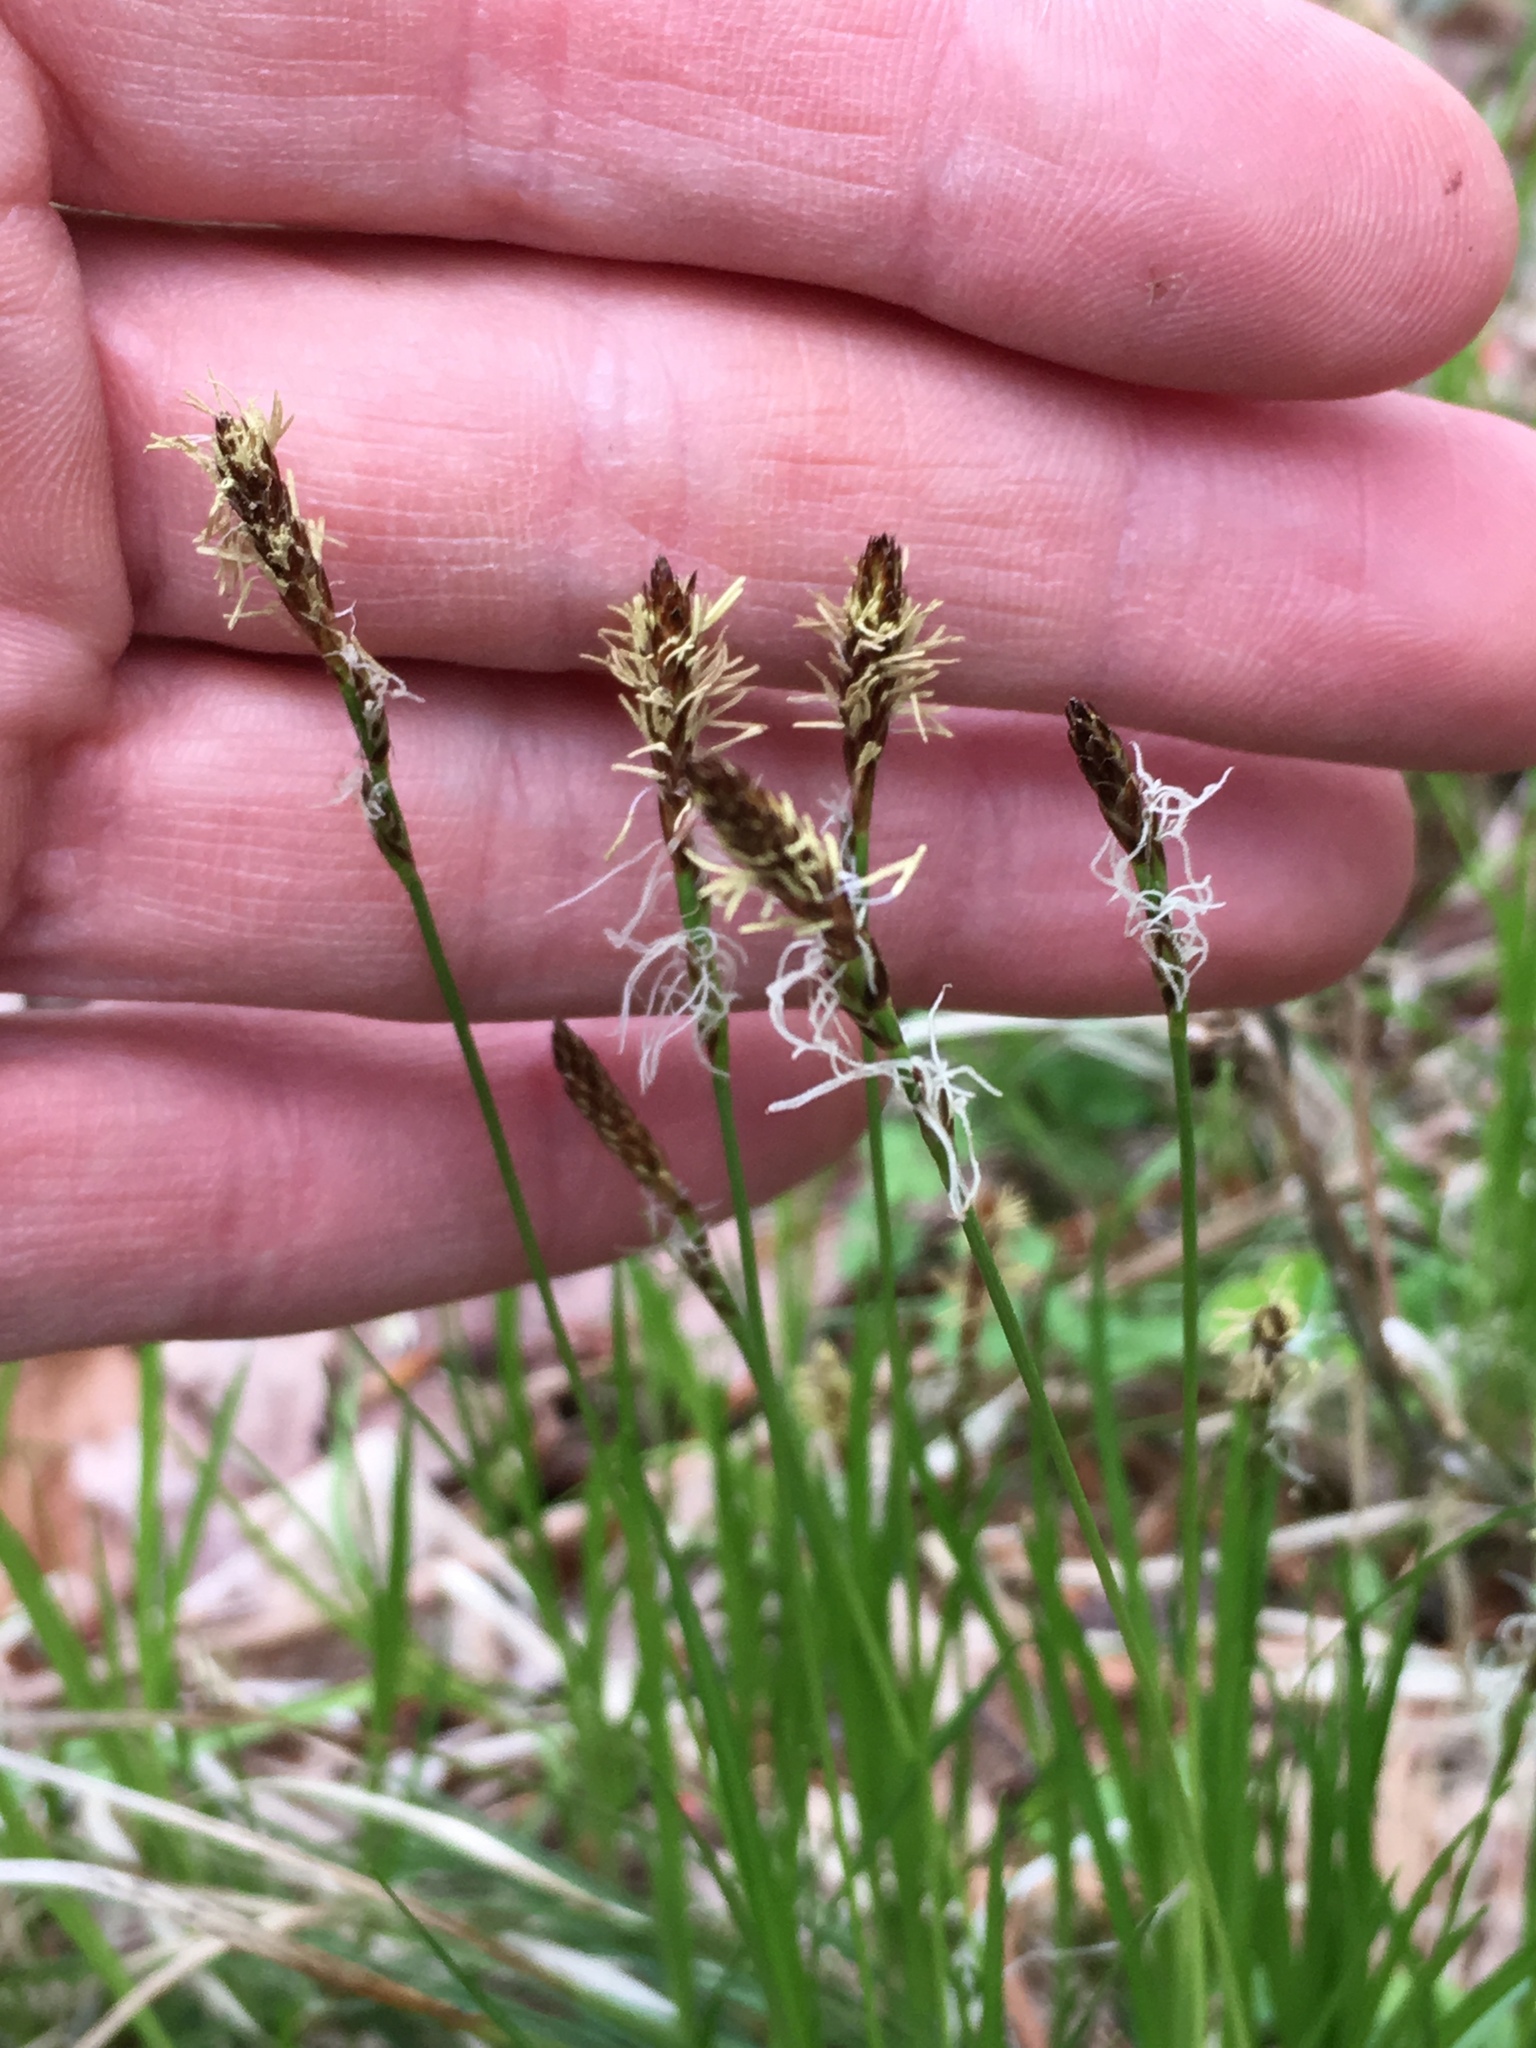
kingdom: Plantae
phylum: Tracheophyta
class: Liliopsida
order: Poales
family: Cyperaceae
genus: Carex
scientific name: Carex pensylvanica
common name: Common oak sedge
